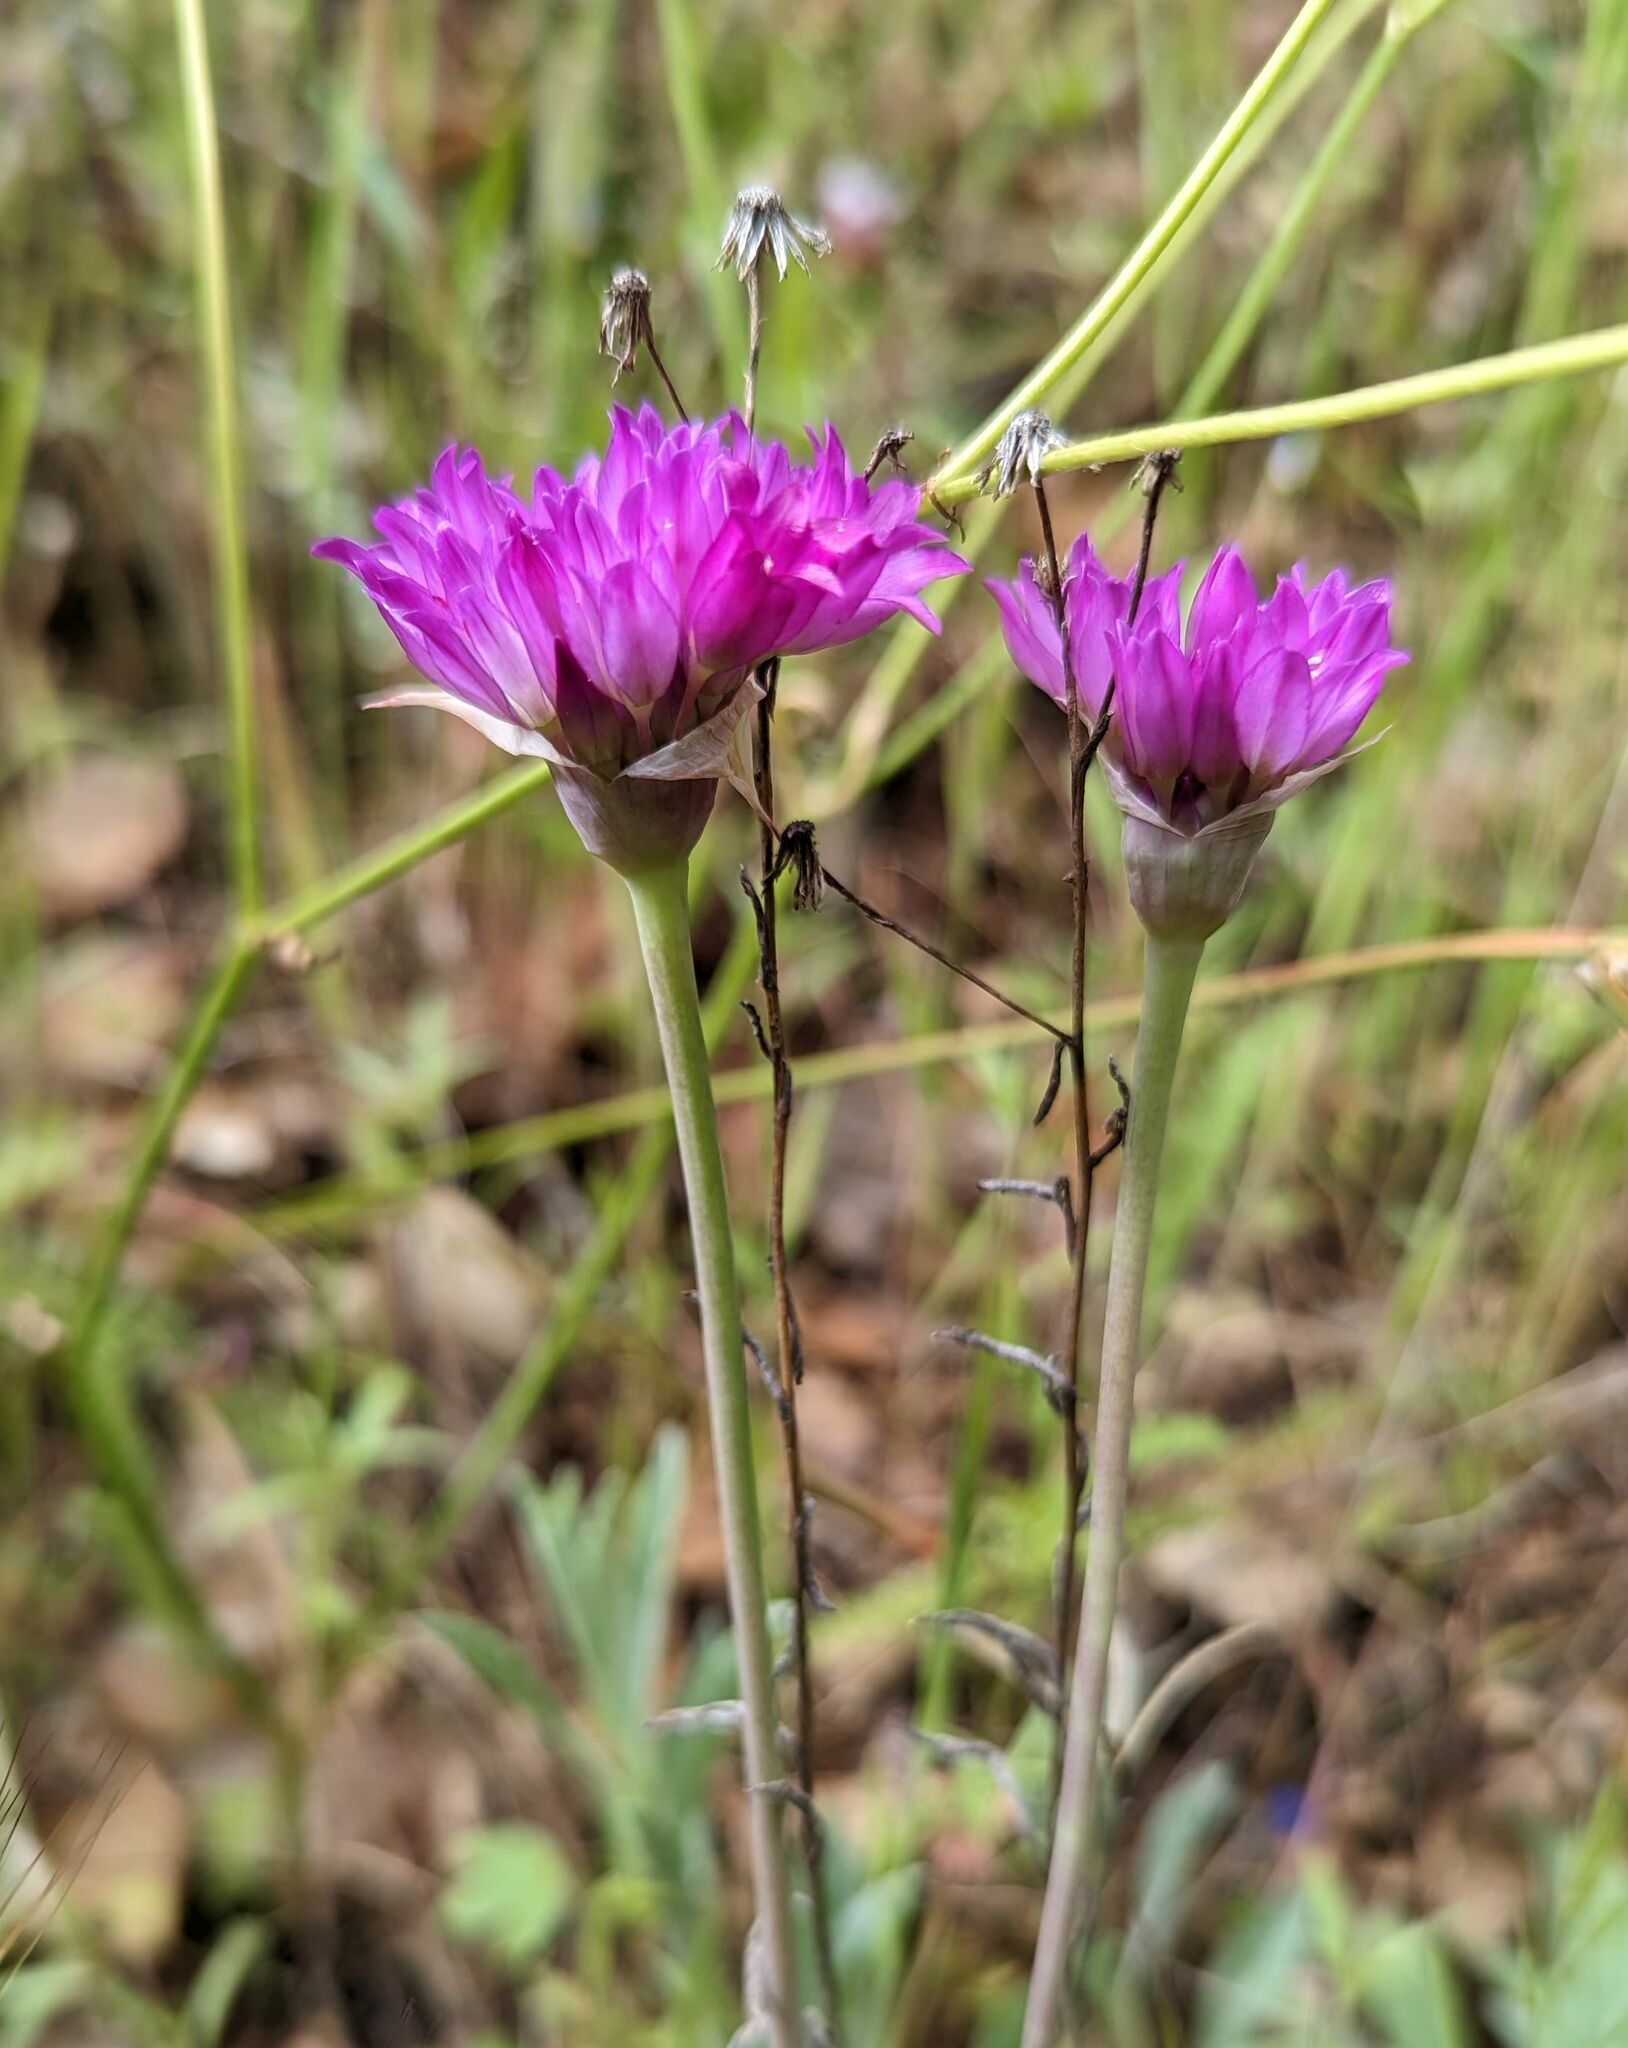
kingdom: Plantae
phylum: Tracheophyta
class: Liliopsida
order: Asparagales
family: Amaryllidaceae
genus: Allium
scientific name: Allium serra
